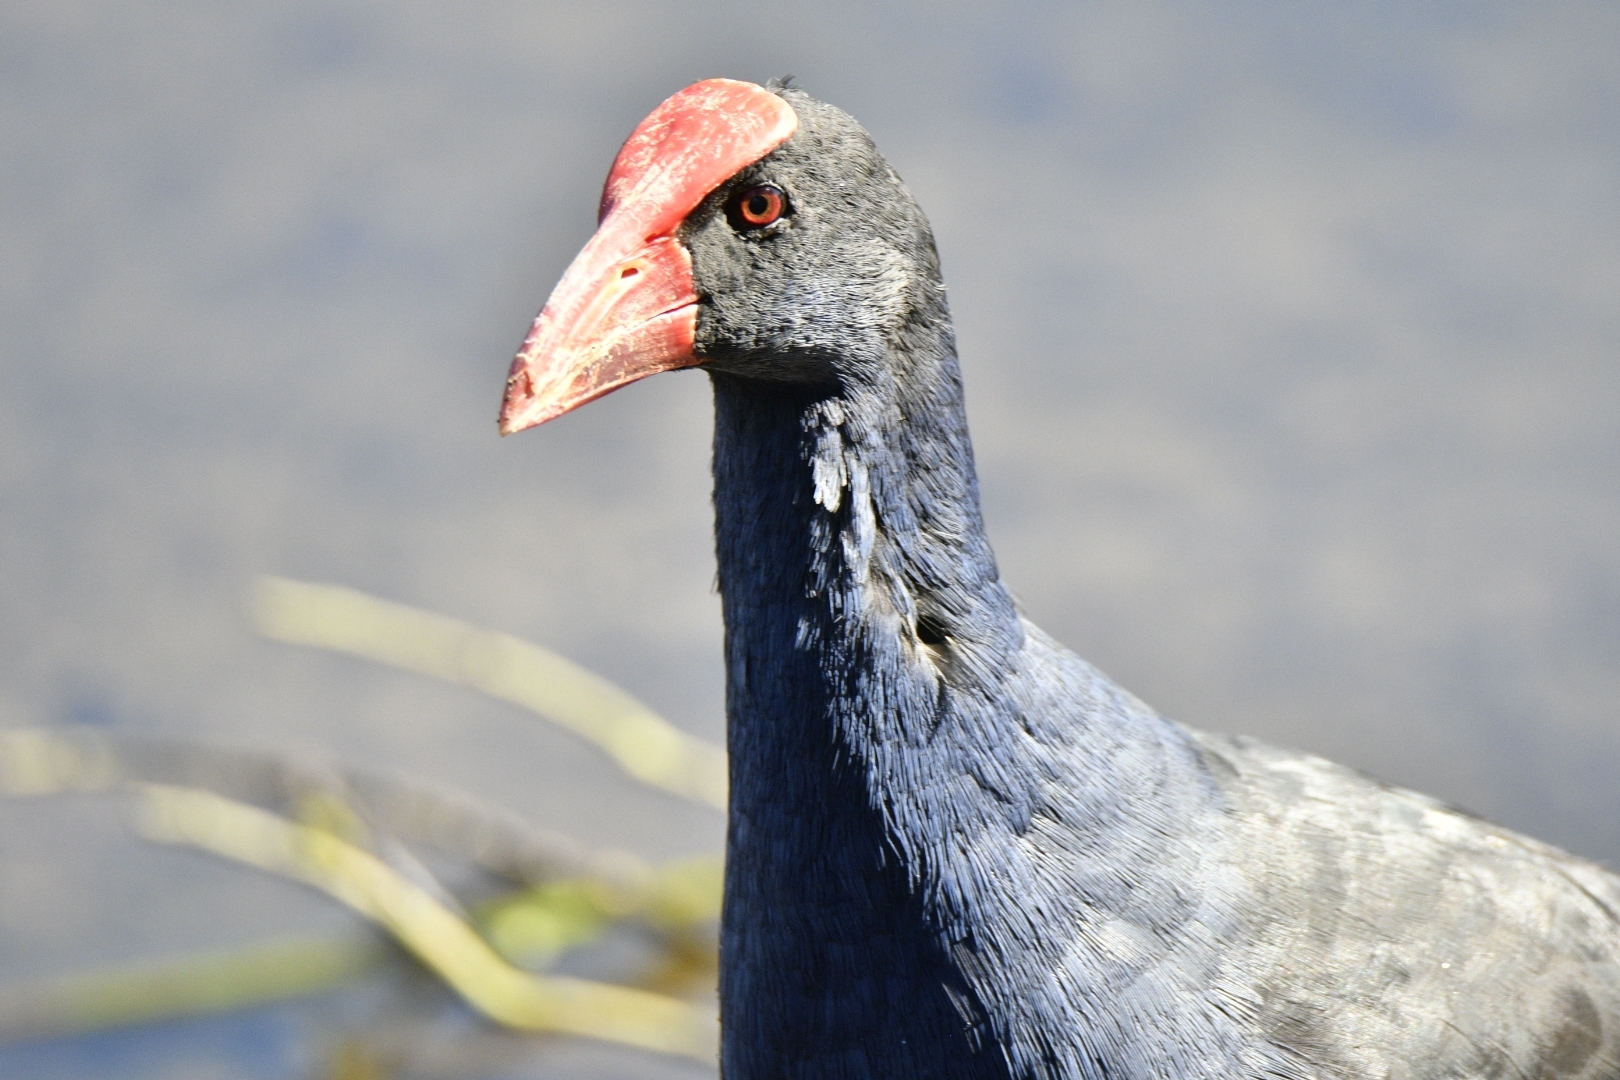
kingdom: Animalia
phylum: Chordata
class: Aves
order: Gruiformes
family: Rallidae
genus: Porphyrio
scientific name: Porphyrio melanotus
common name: Australasian swamphen
